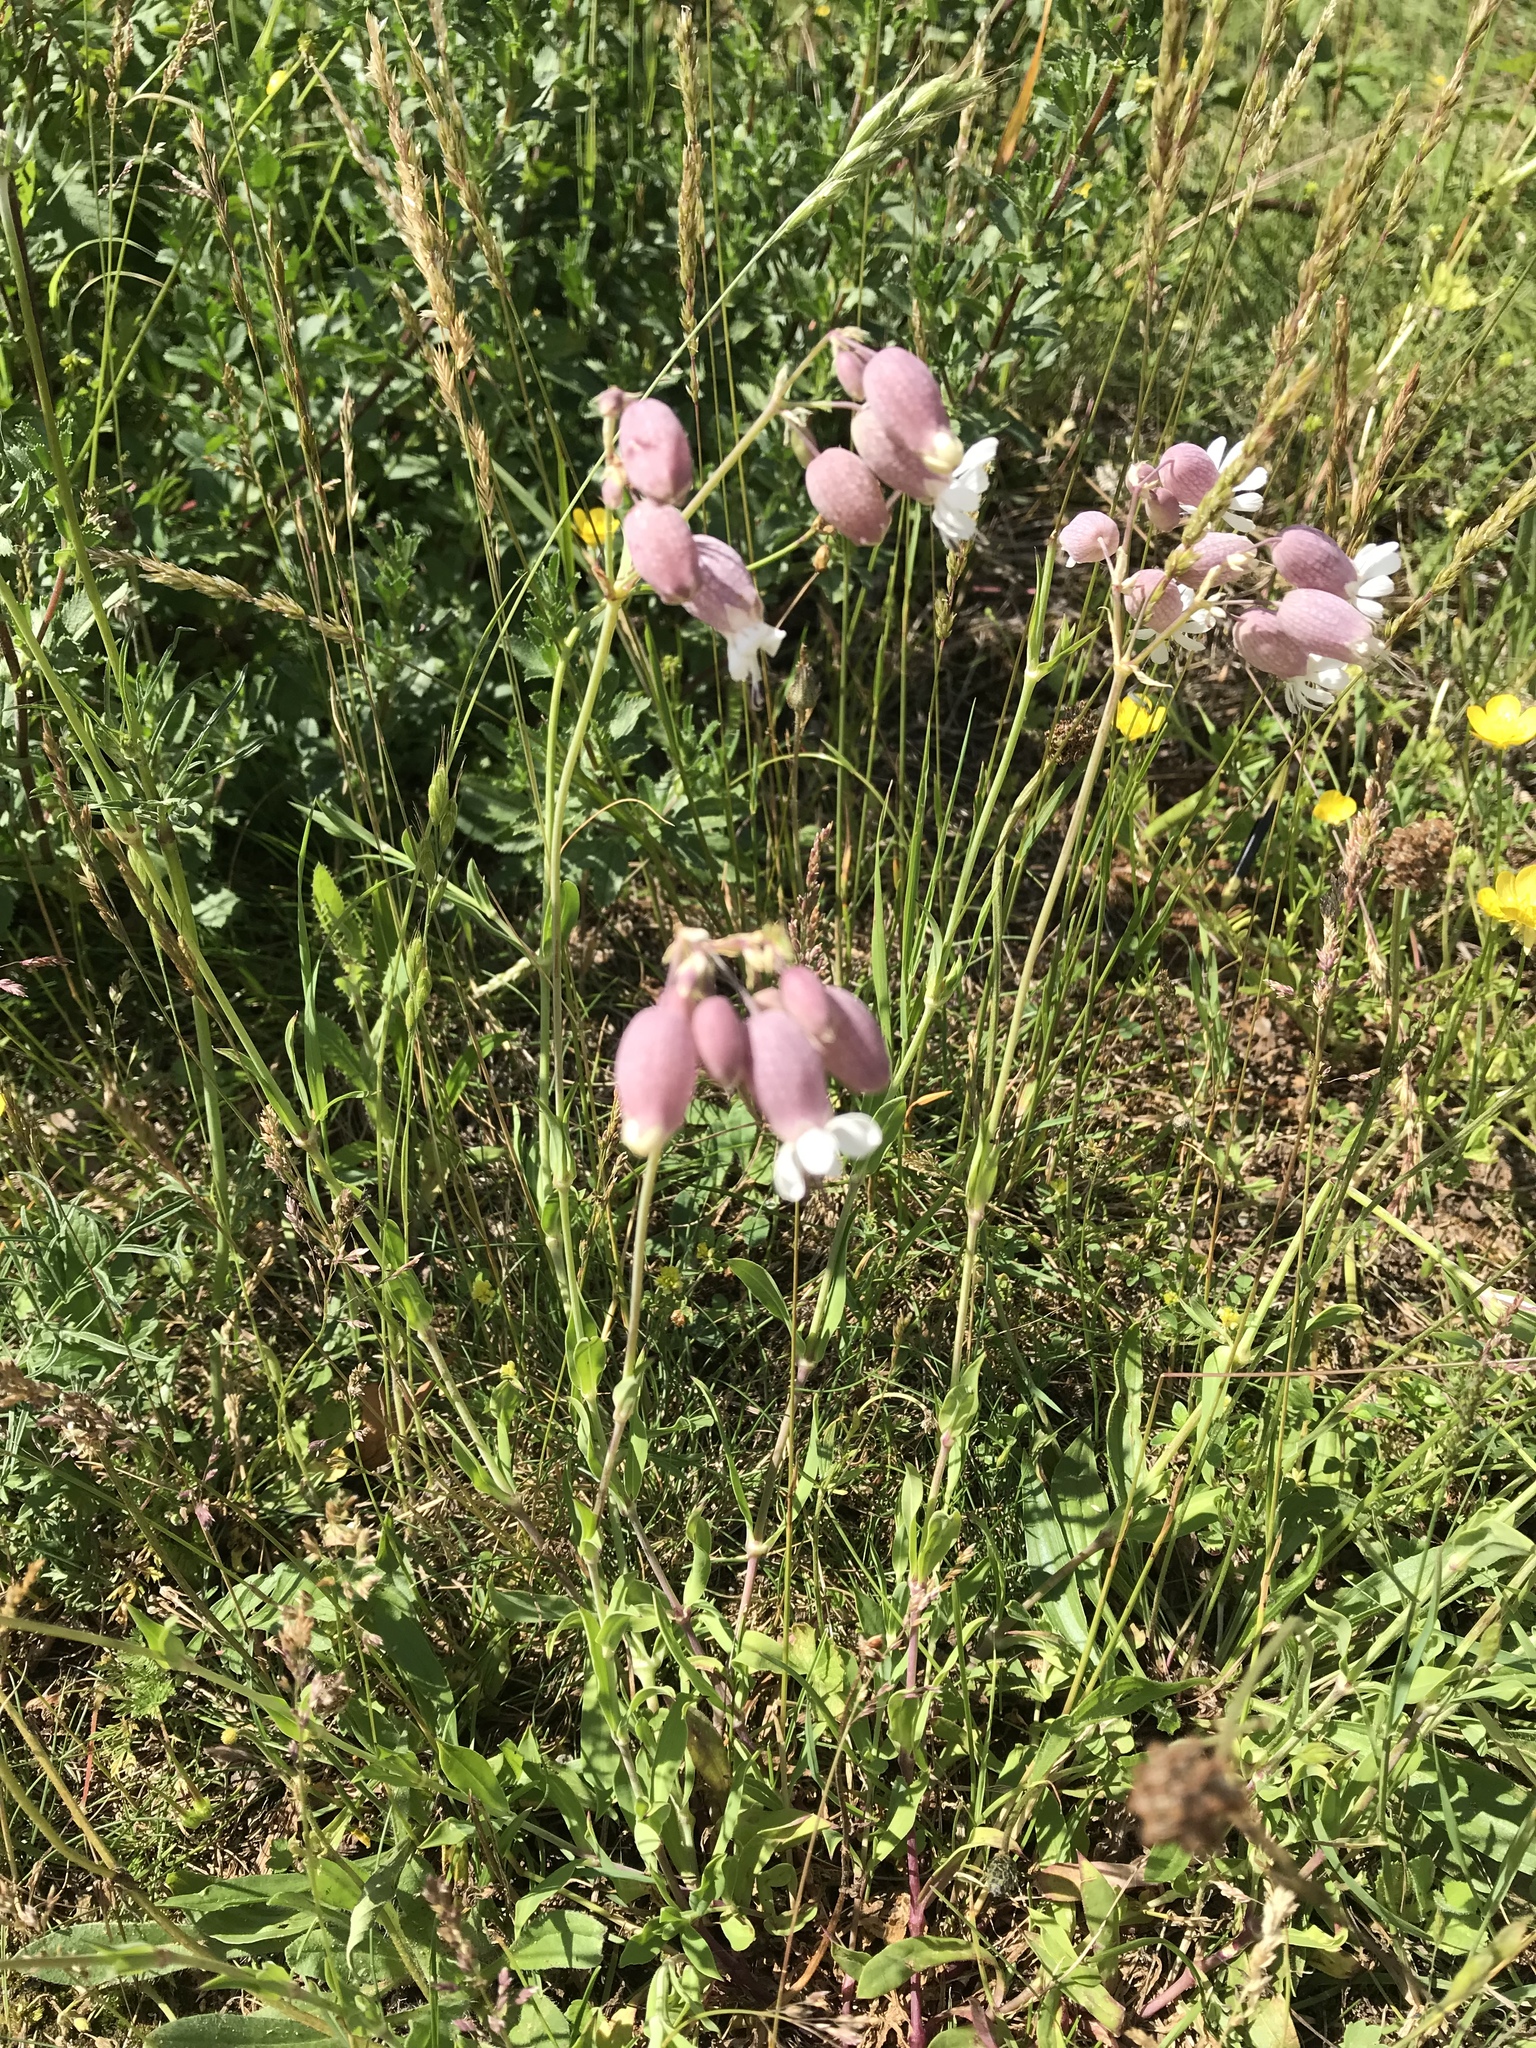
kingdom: Plantae
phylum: Tracheophyta
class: Magnoliopsida
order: Caryophyllales
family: Caryophyllaceae
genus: Silene
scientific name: Silene vulgaris
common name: Bladder campion
